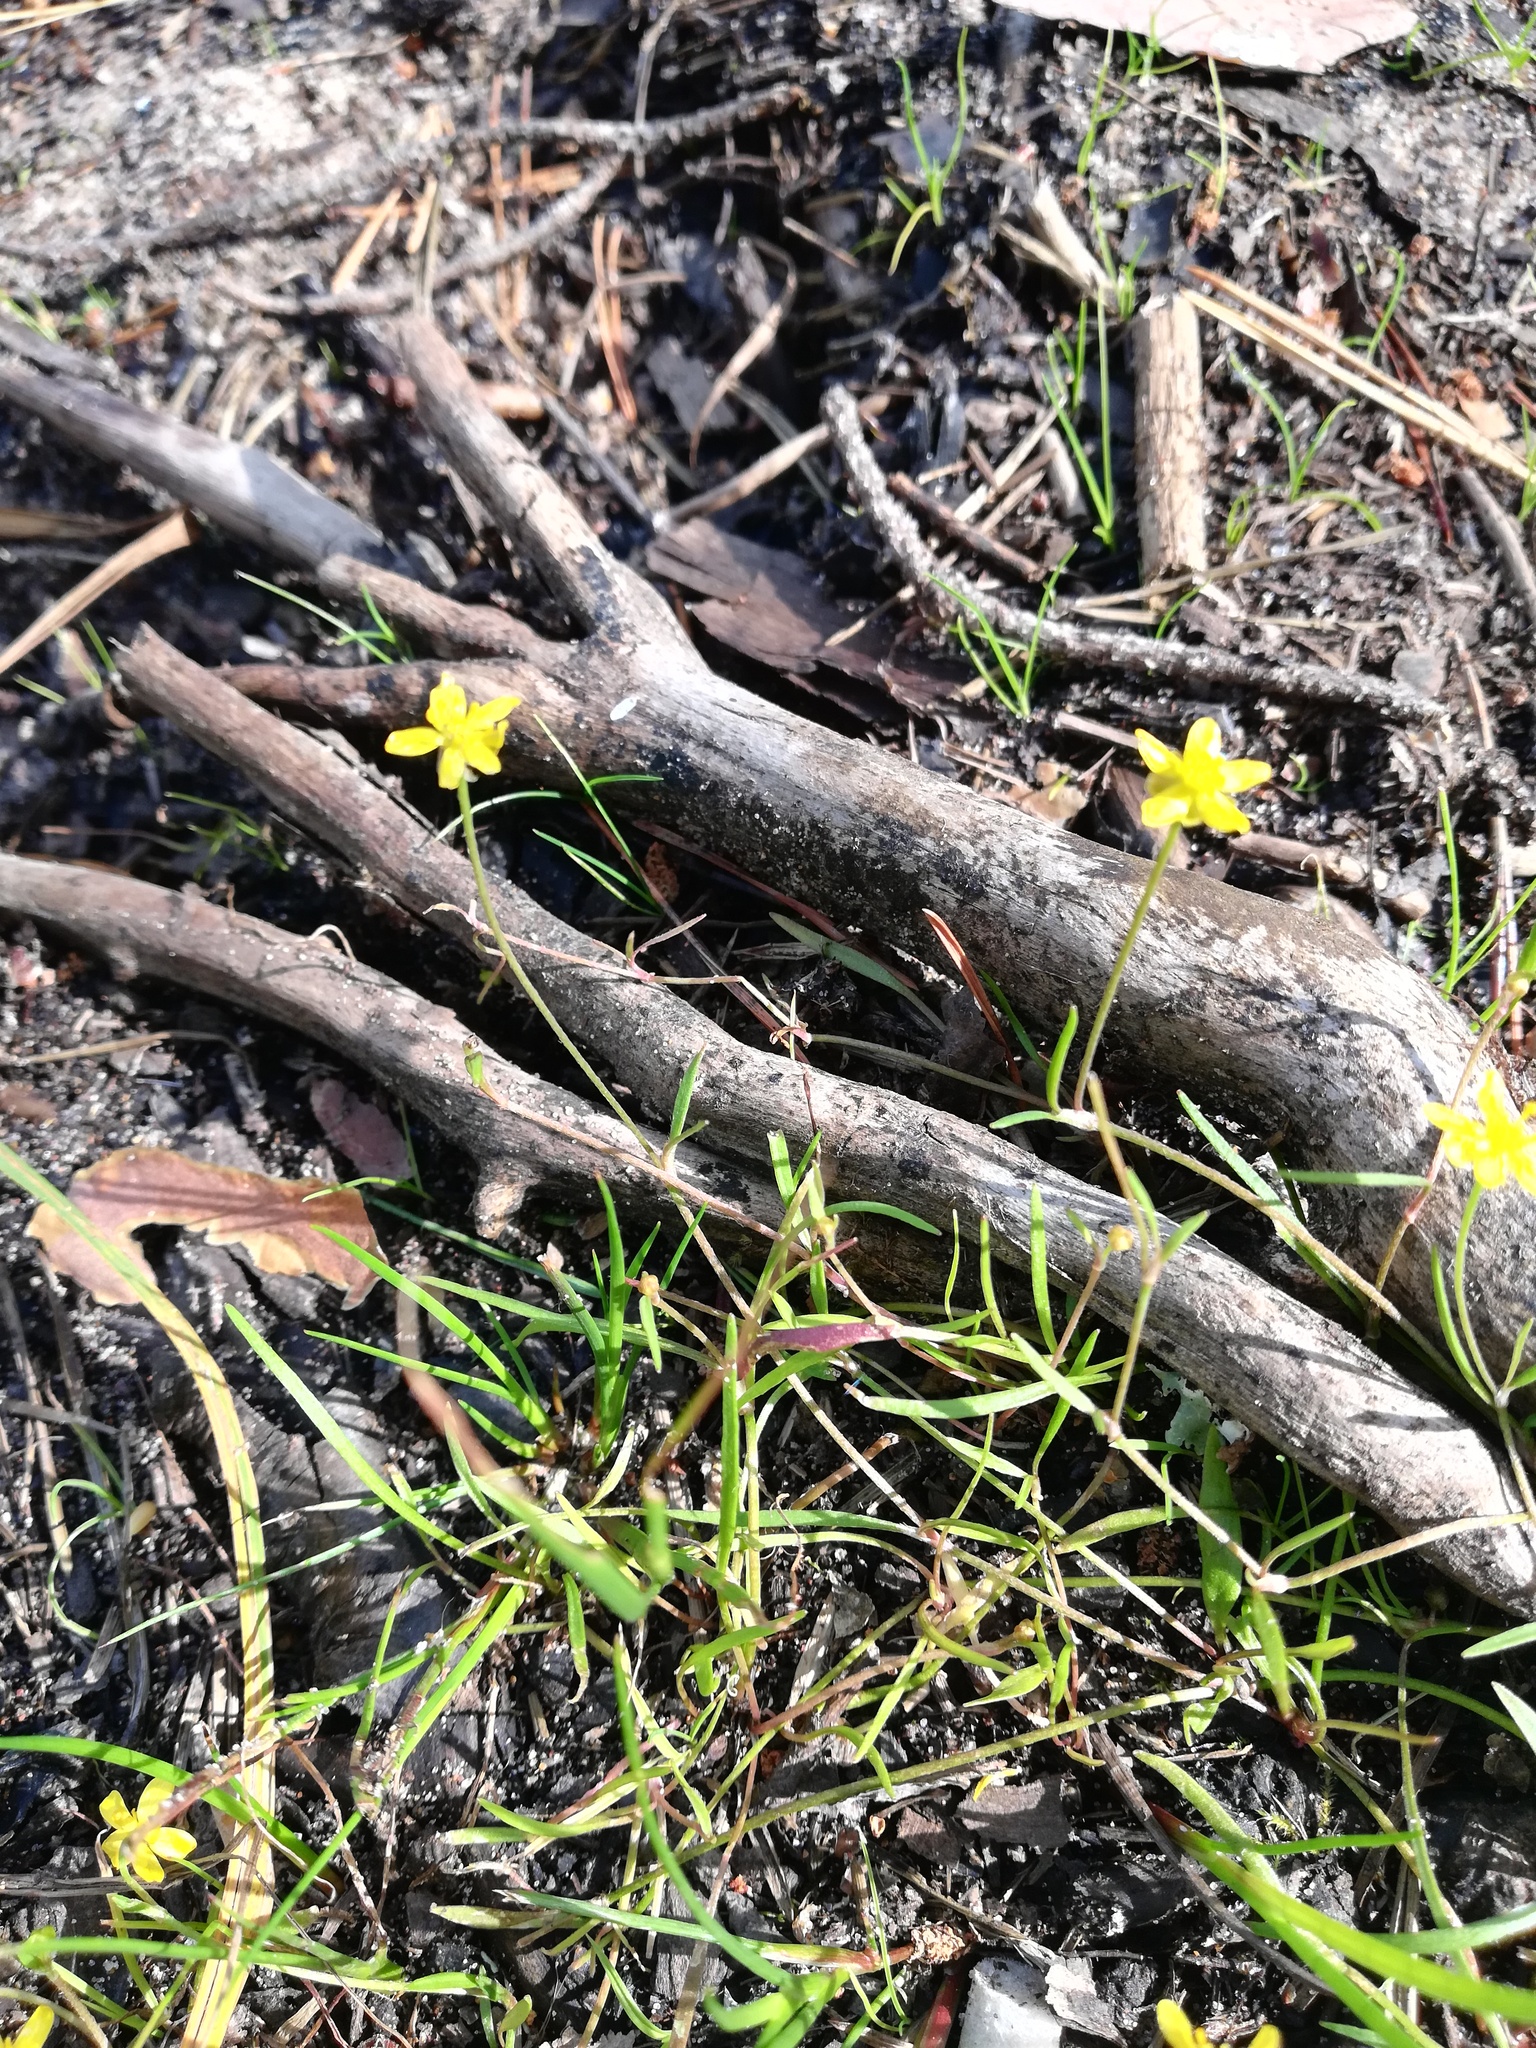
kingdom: Plantae
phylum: Tracheophyta
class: Magnoliopsida
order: Ranunculales
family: Ranunculaceae
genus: Ranunculus
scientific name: Ranunculus flammula
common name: Lesser spearwort
